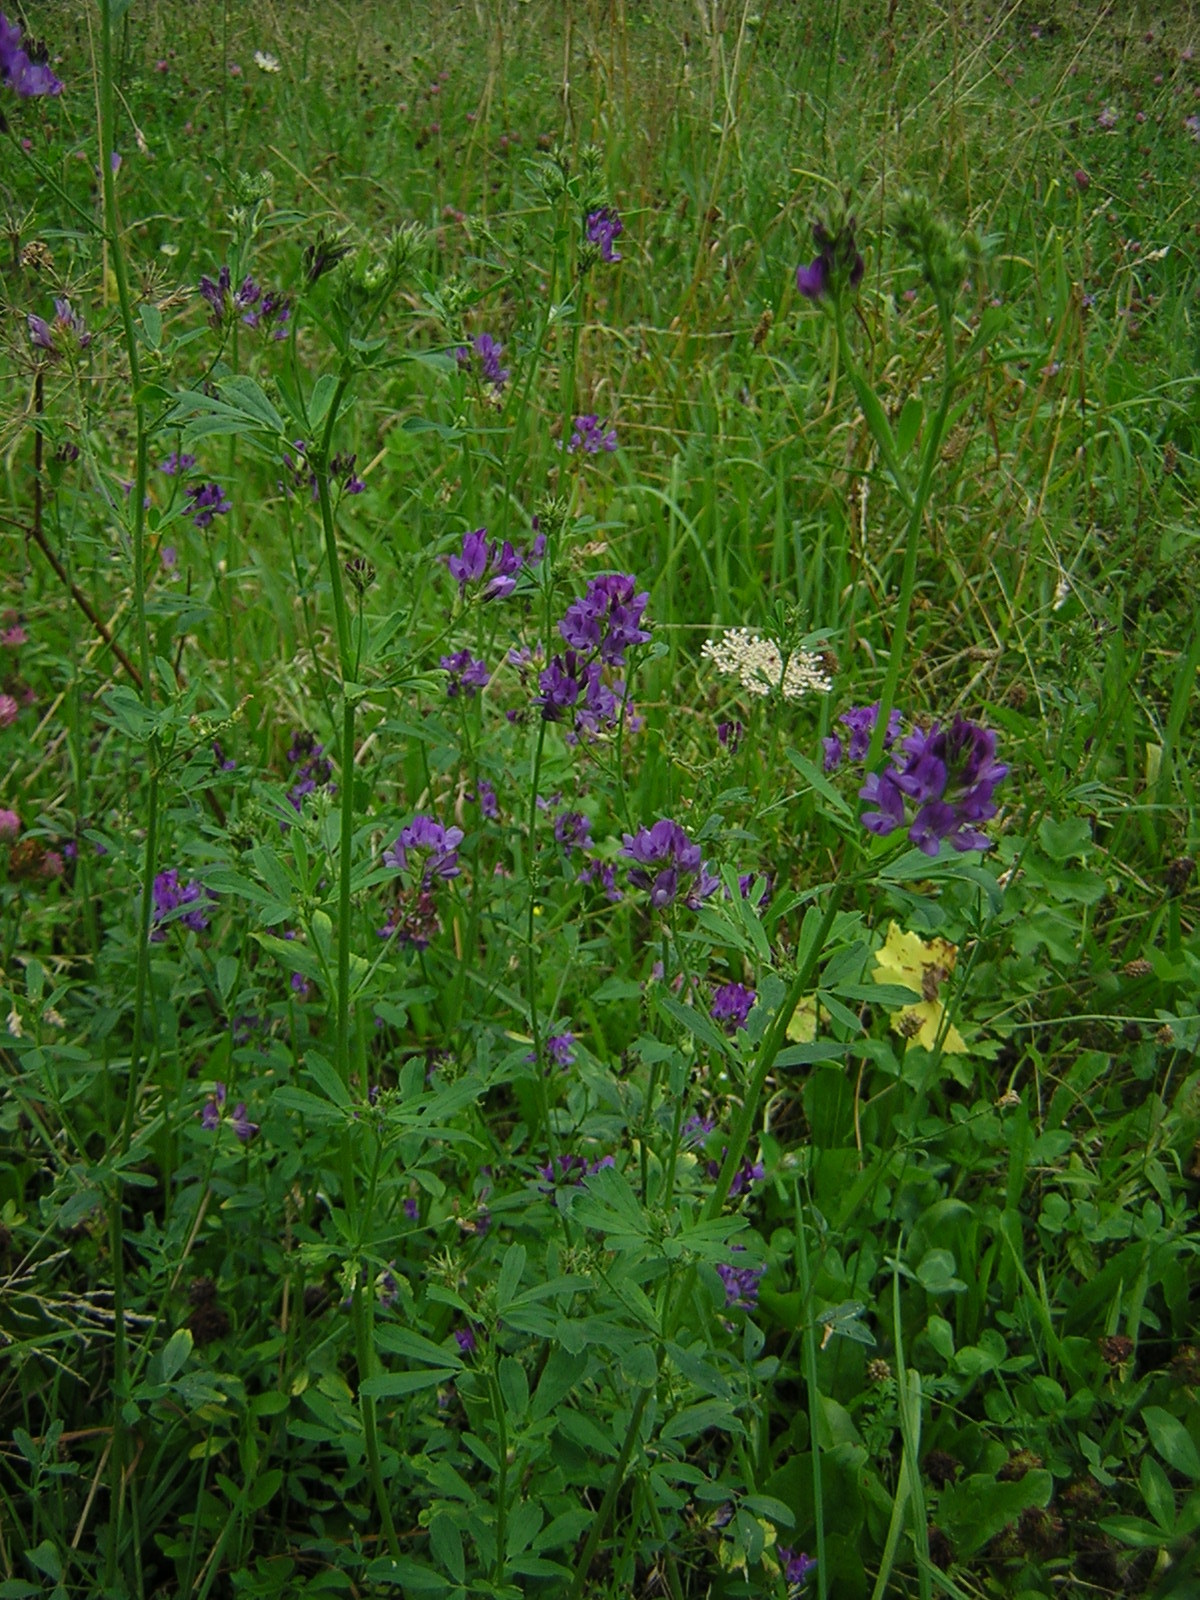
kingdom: Plantae
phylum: Tracheophyta
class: Magnoliopsida
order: Fabales
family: Fabaceae
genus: Medicago
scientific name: Medicago sativa
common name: Alfalfa
